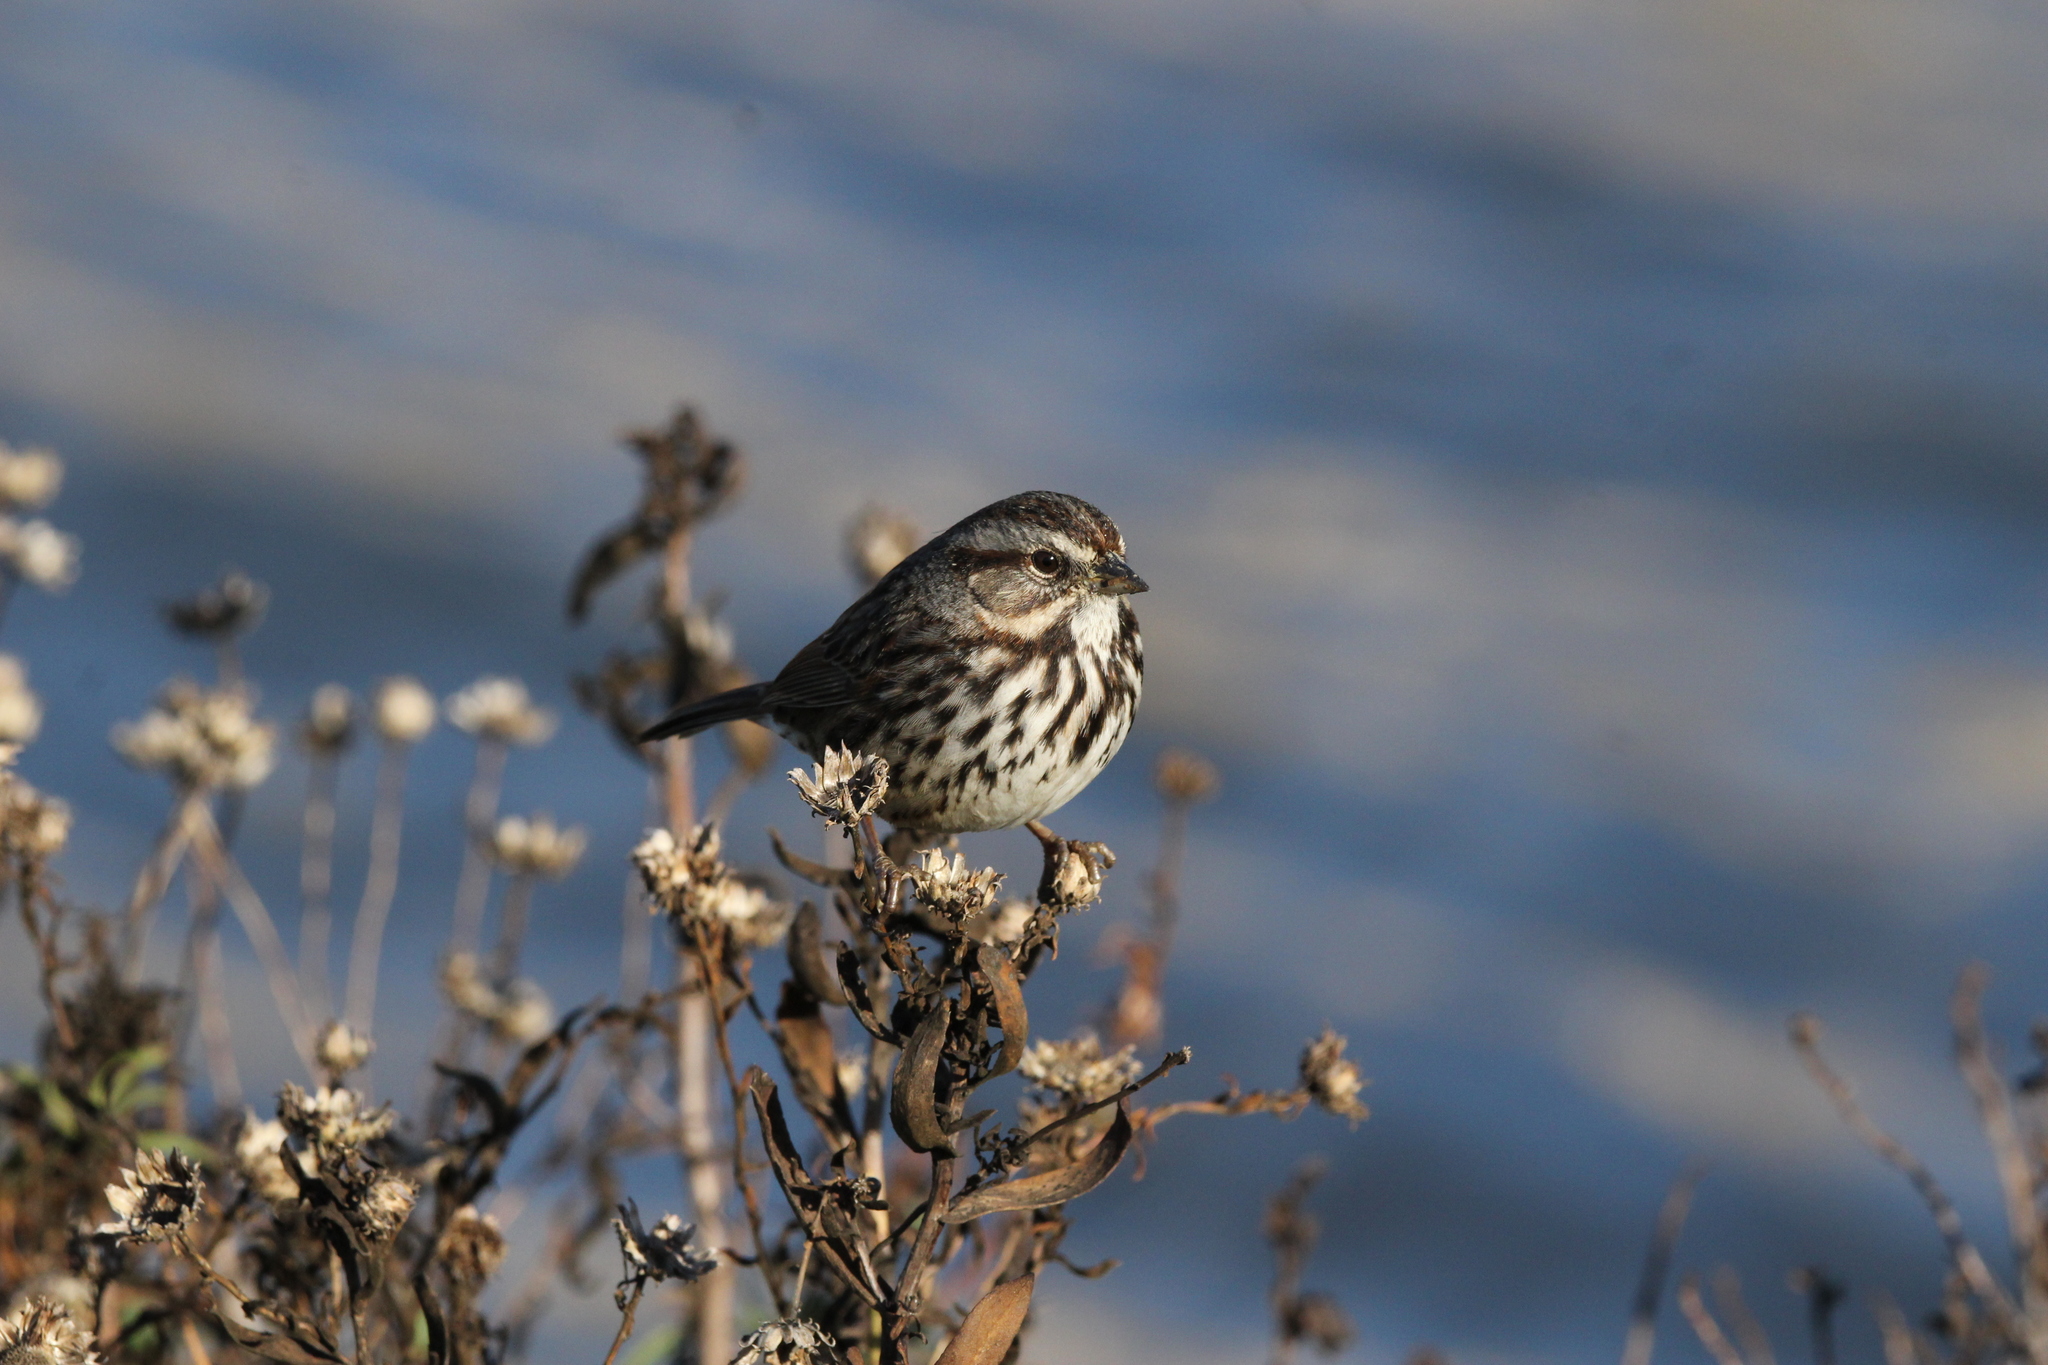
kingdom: Animalia
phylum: Chordata
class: Aves
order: Passeriformes
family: Passerellidae
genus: Melospiza
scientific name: Melospiza melodia
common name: Song sparrow
